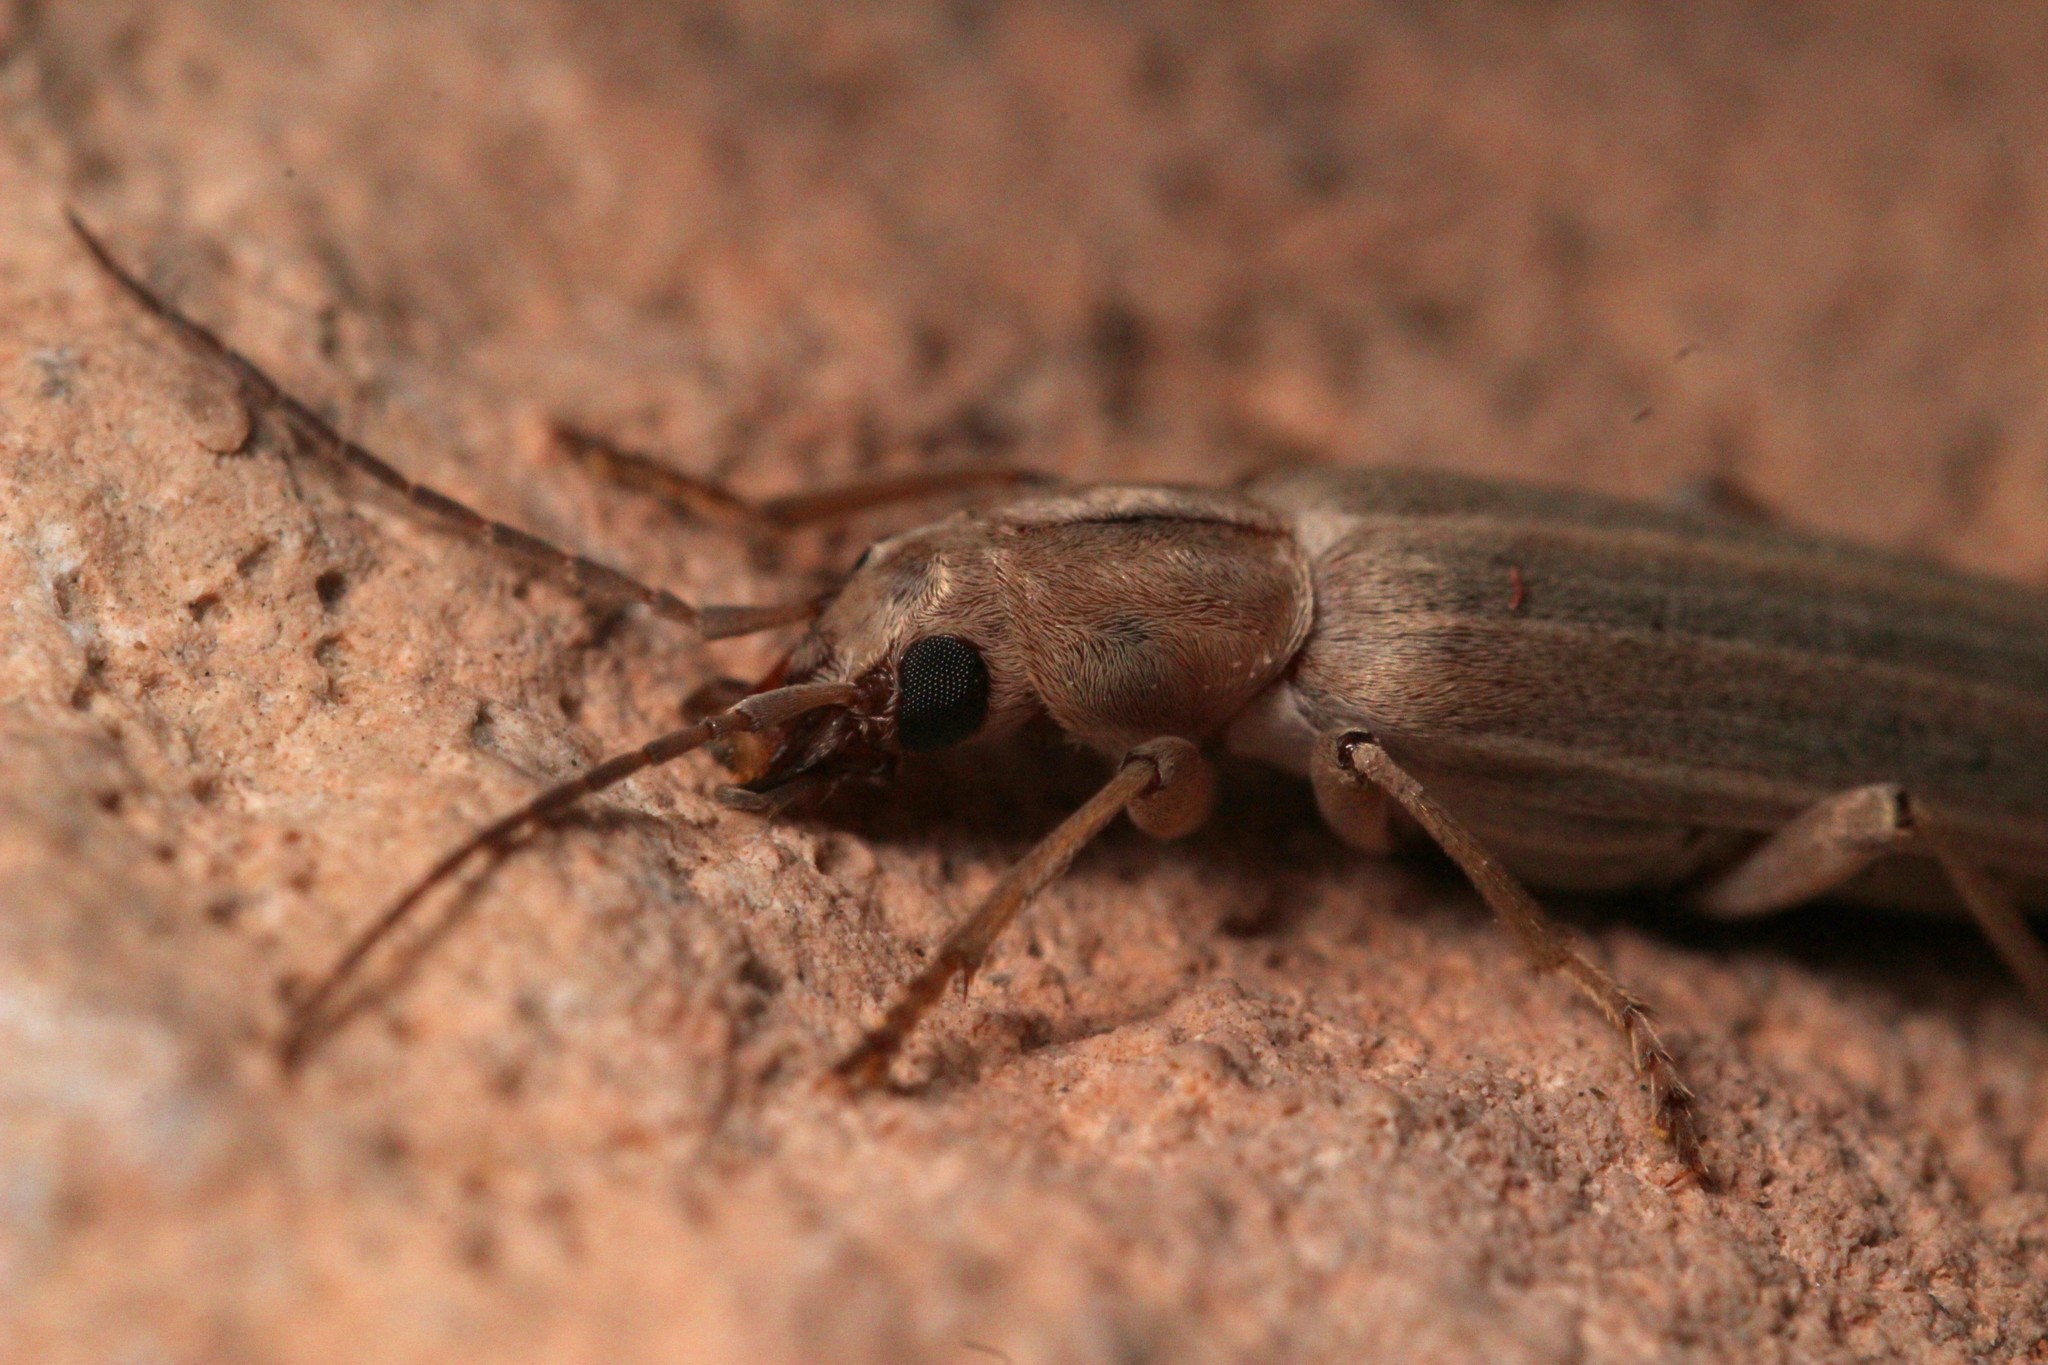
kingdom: Animalia
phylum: Arthropoda
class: Insecta
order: Coleoptera
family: Oedemeridae
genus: Oxacis
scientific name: Oxacis pallida
